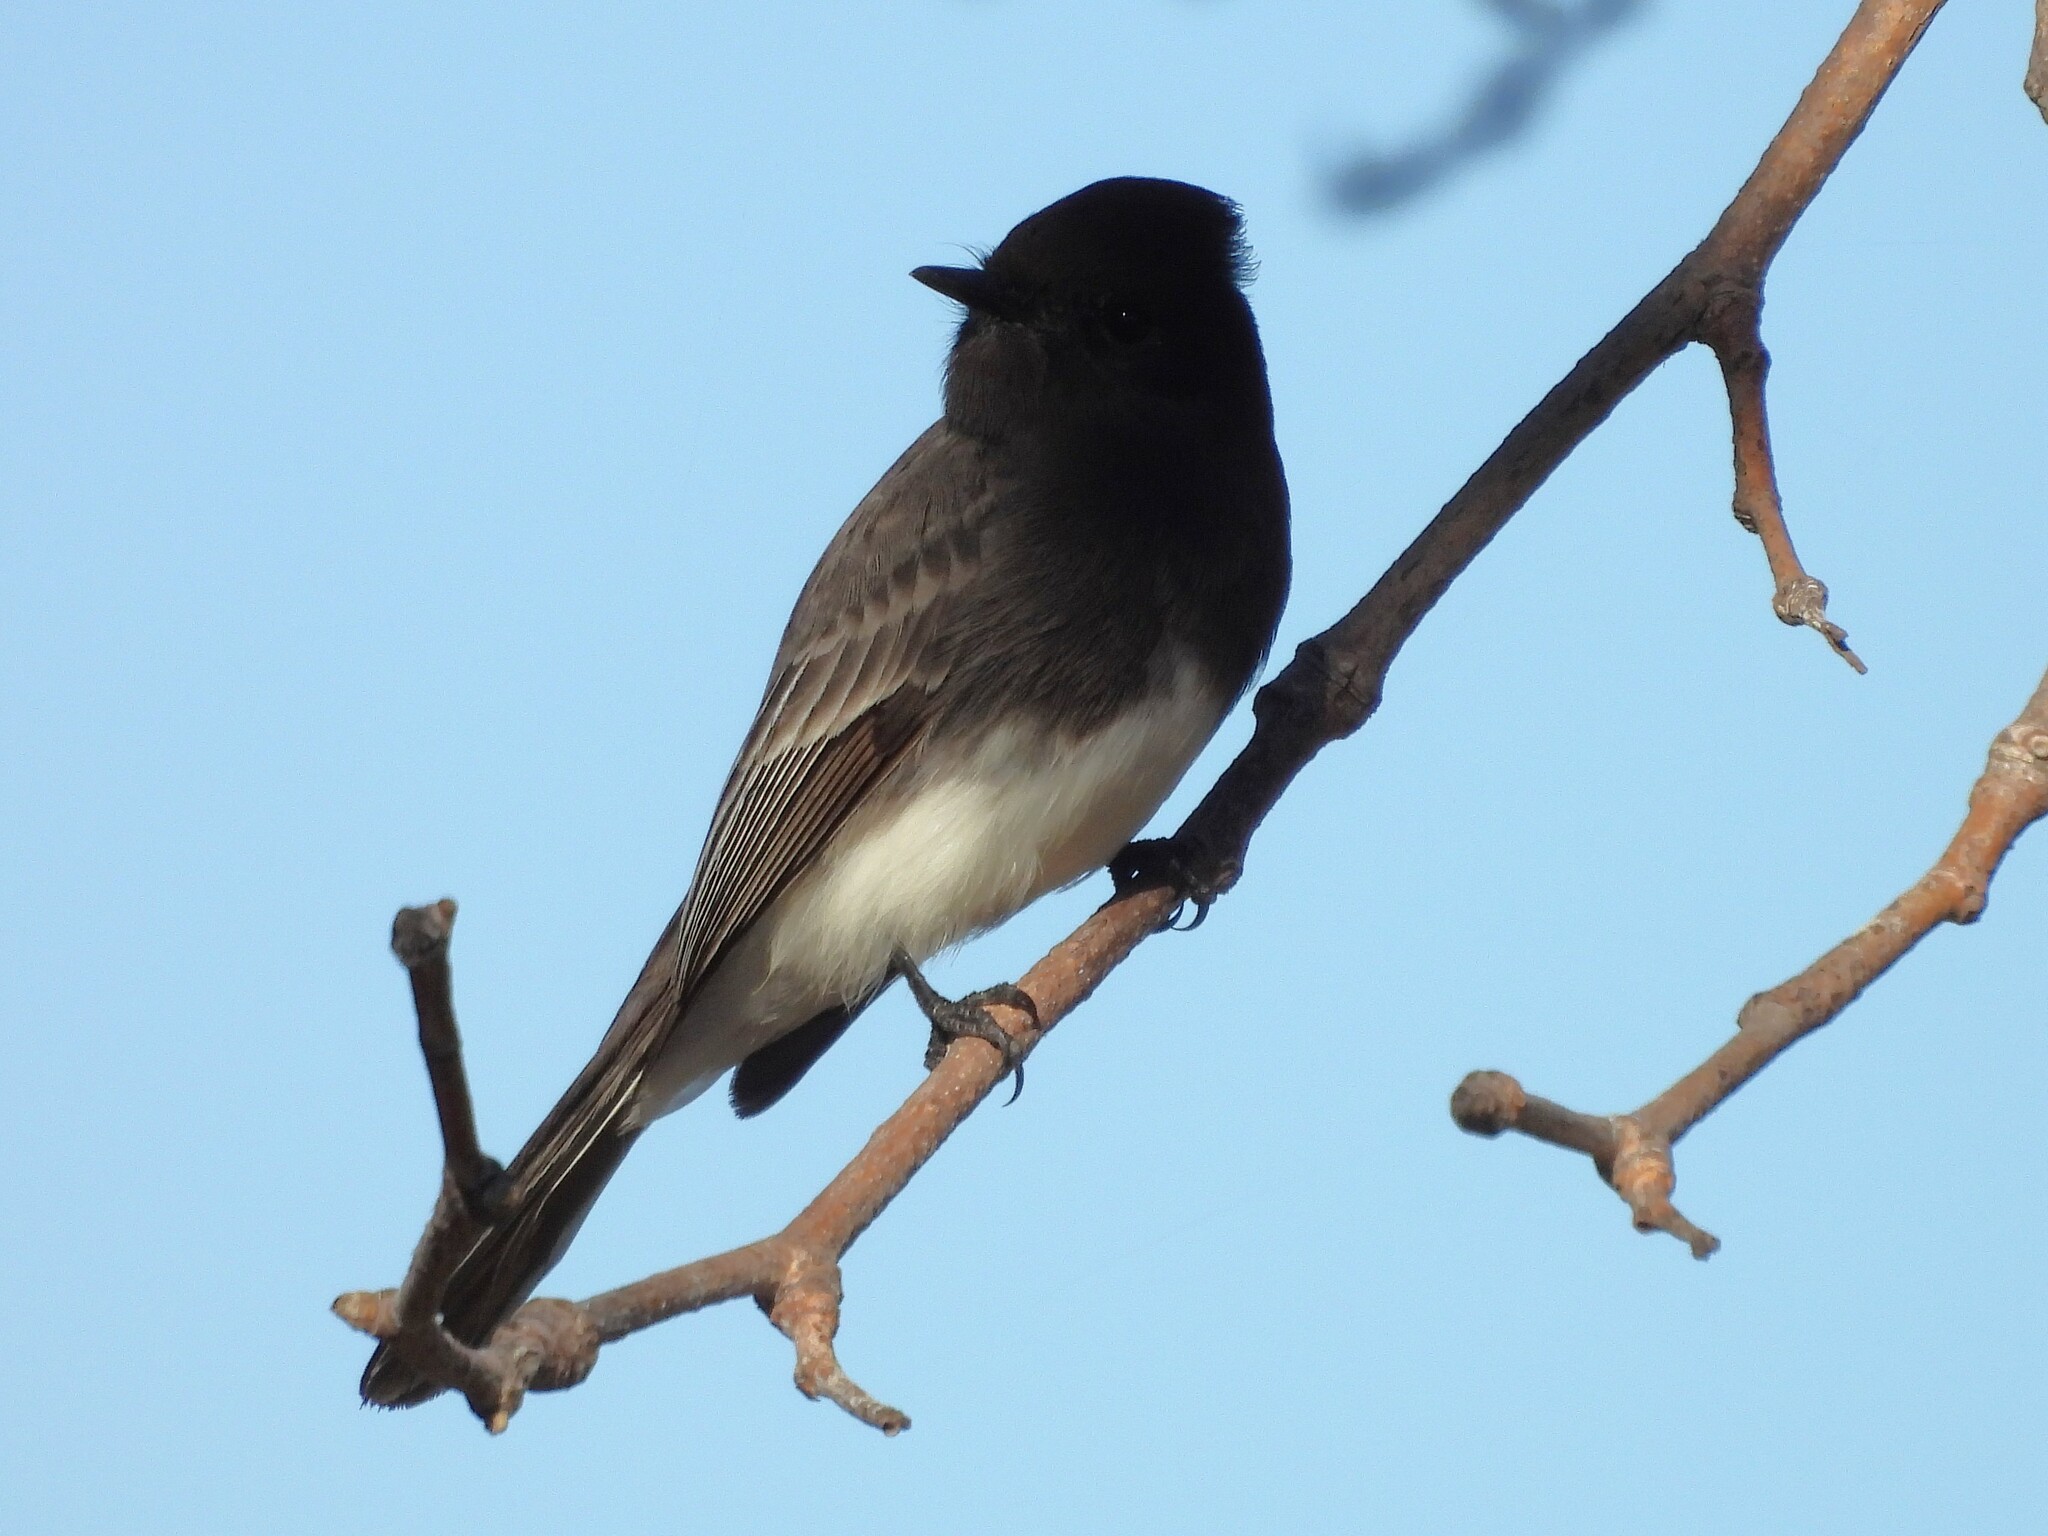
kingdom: Animalia
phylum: Chordata
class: Aves
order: Passeriformes
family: Tyrannidae
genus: Sayornis
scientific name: Sayornis nigricans
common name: Black phoebe
